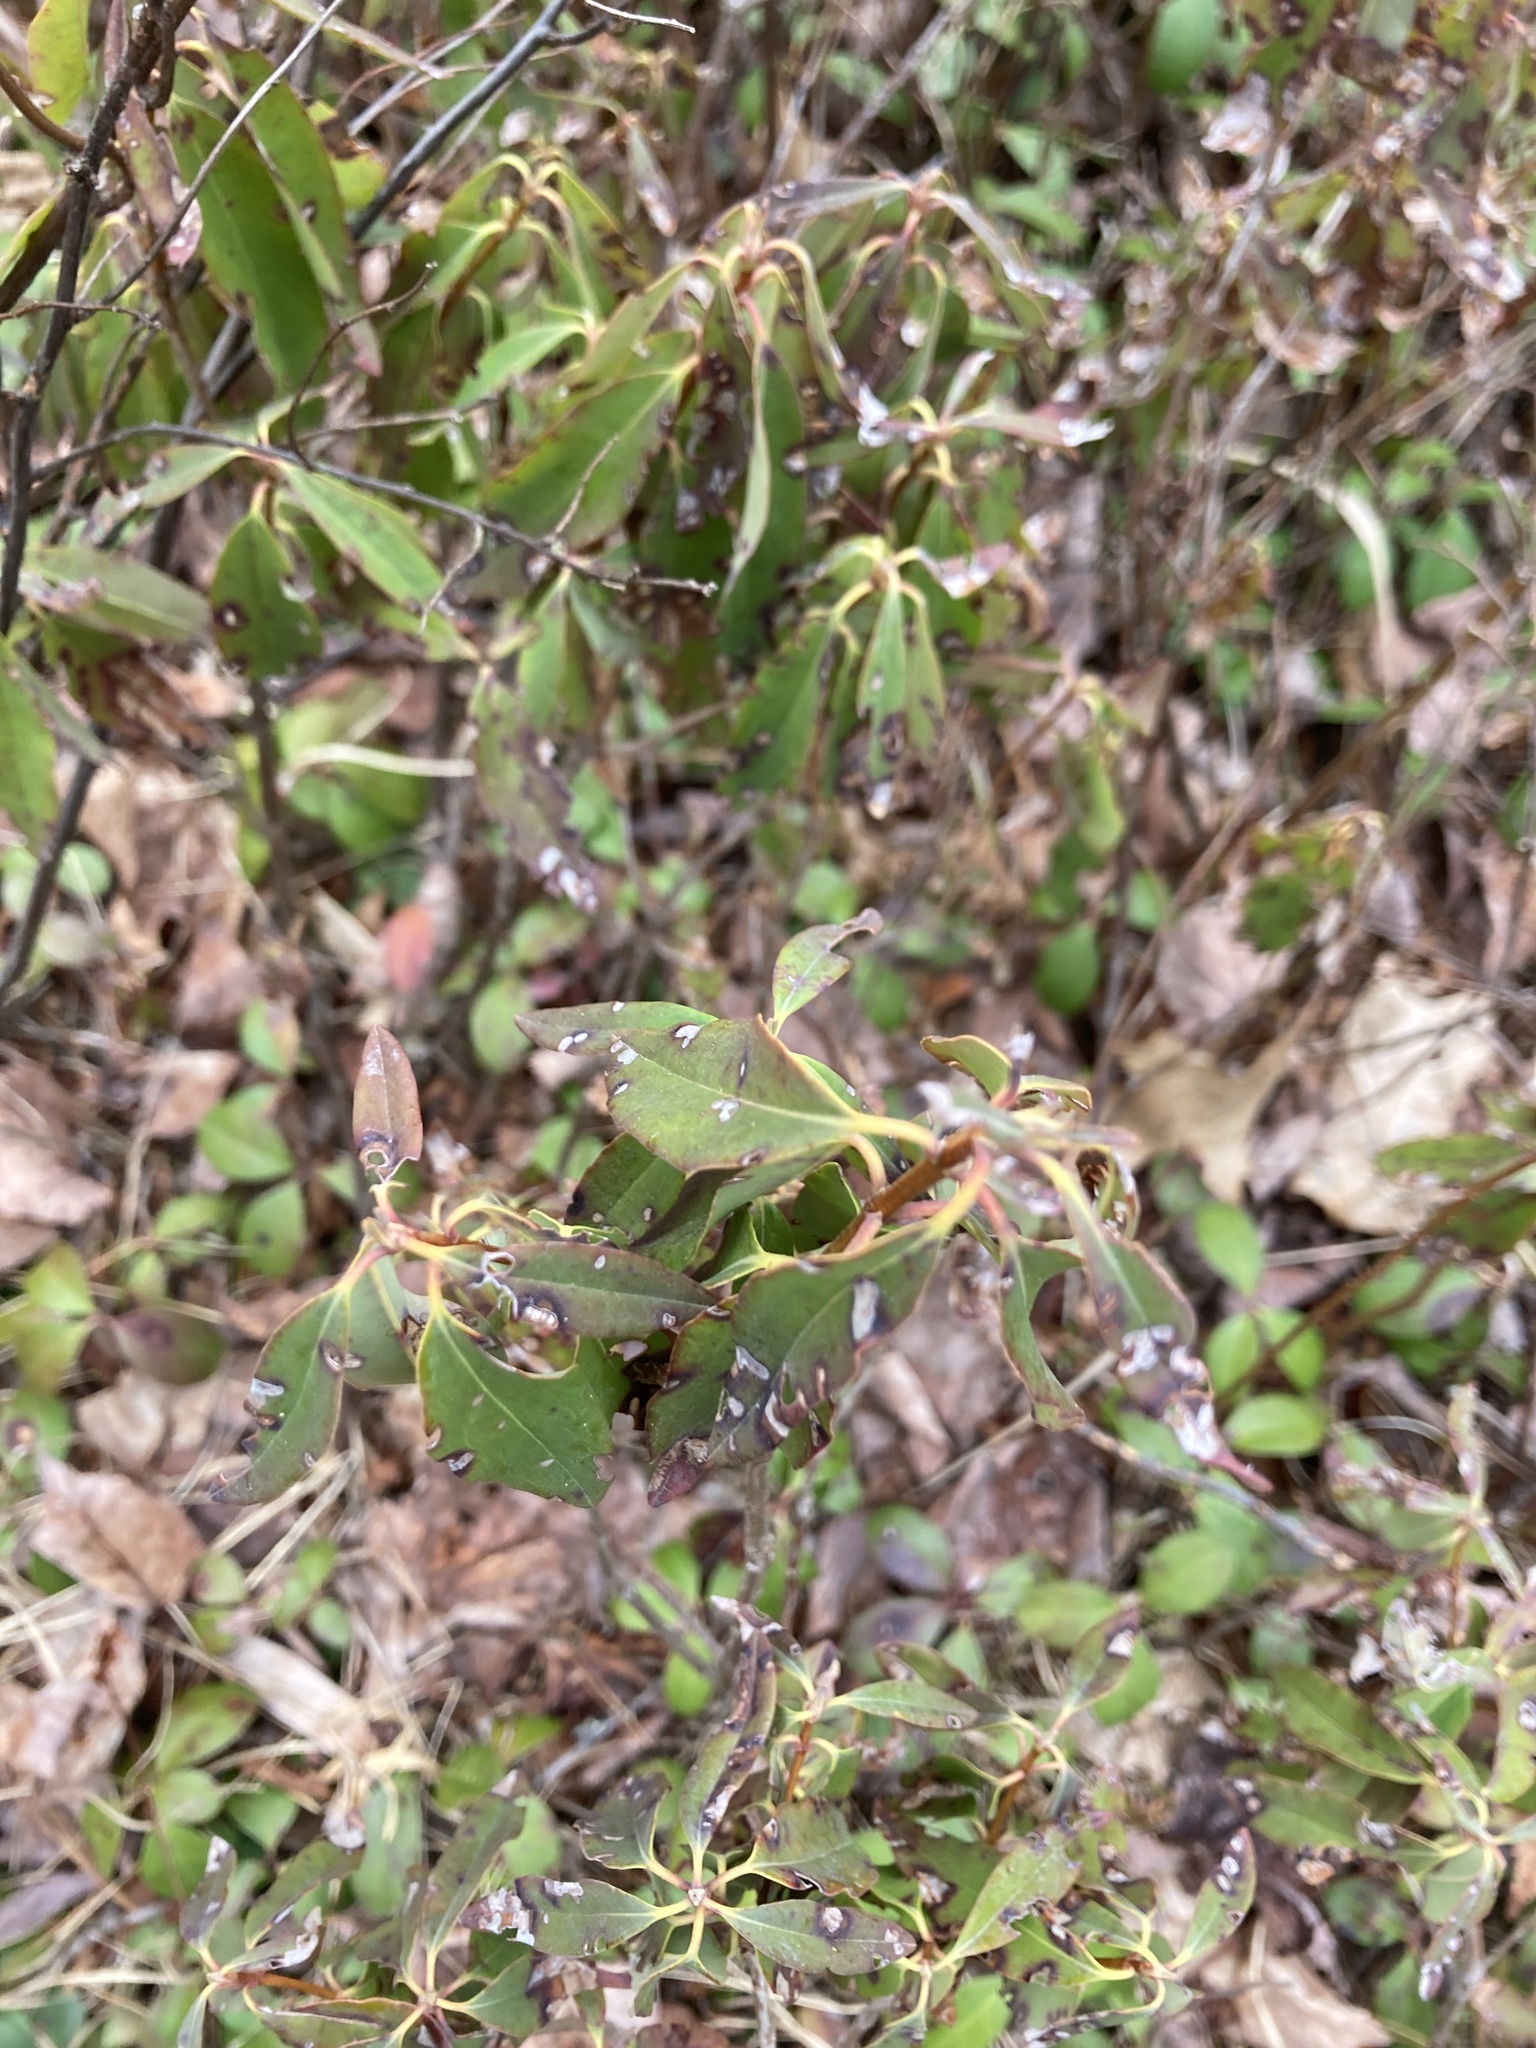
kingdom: Plantae
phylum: Tracheophyta
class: Magnoliopsida
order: Ericales
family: Ericaceae
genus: Kalmia
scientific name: Kalmia angustifolia
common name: Sheep-laurel
